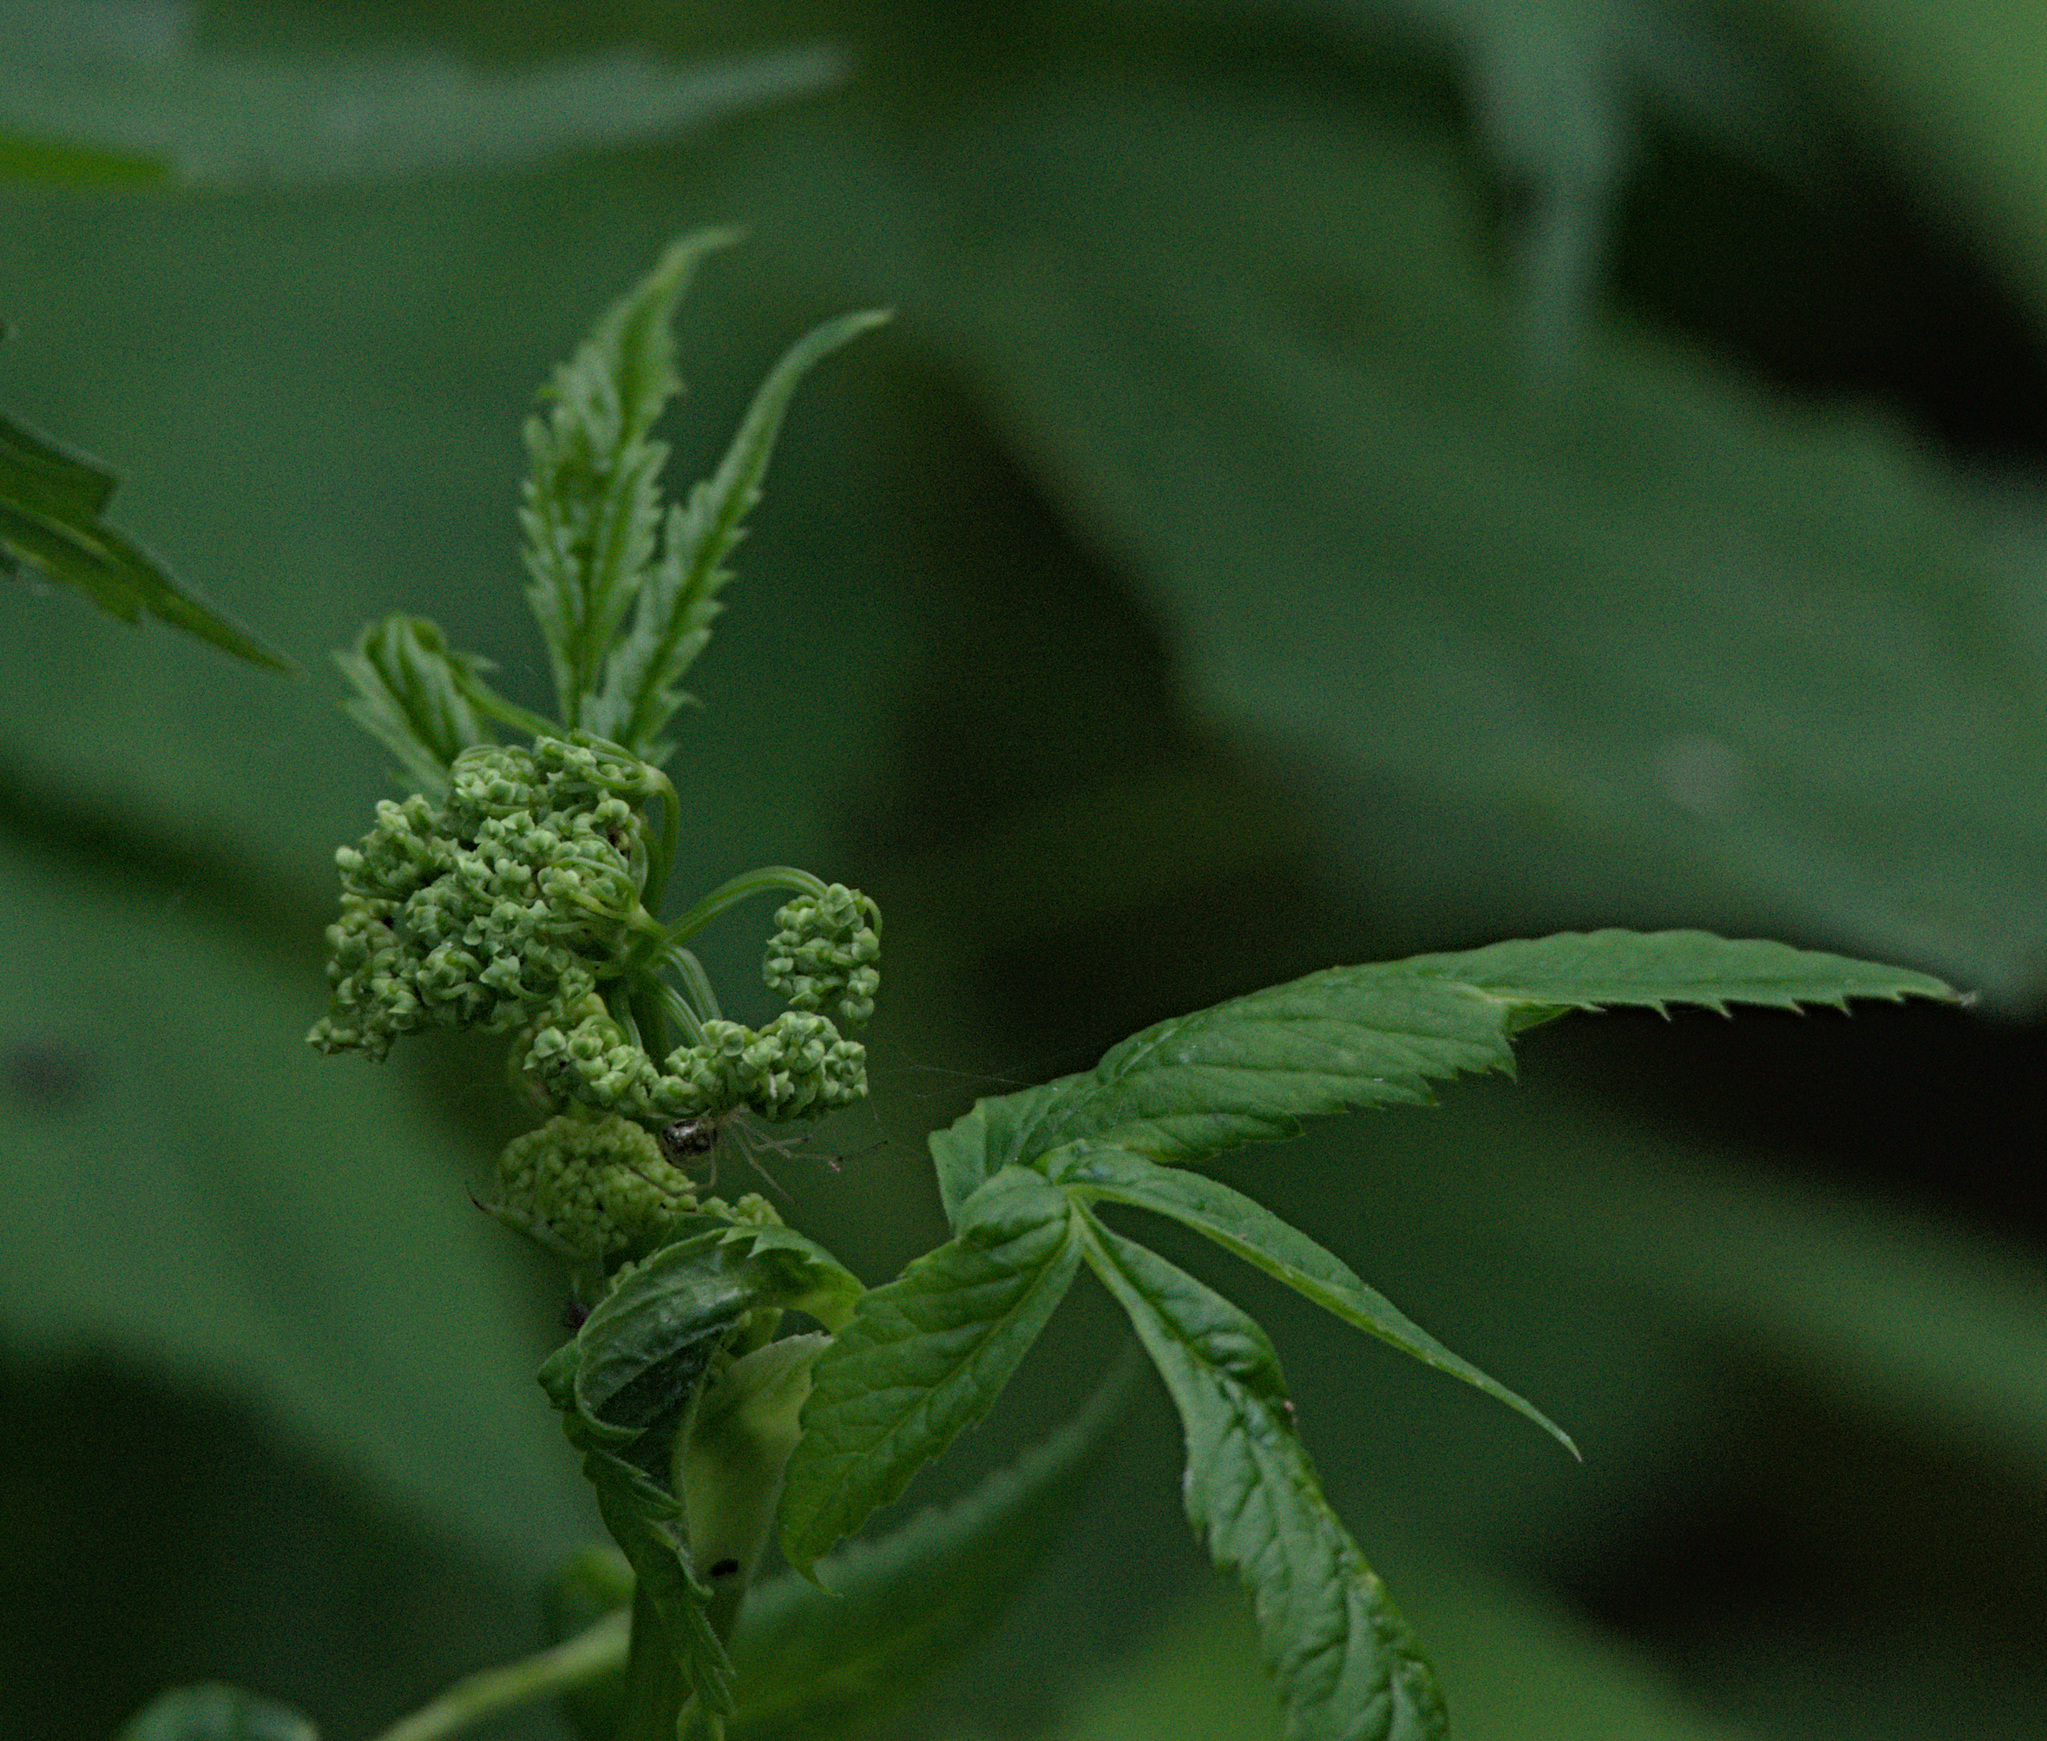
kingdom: Plantae
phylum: Tracheophyta
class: Magnoliopsida
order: Apiales
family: Apiaceae
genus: Aegopodium
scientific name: Aegopodium podagraria
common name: Ground-elder
